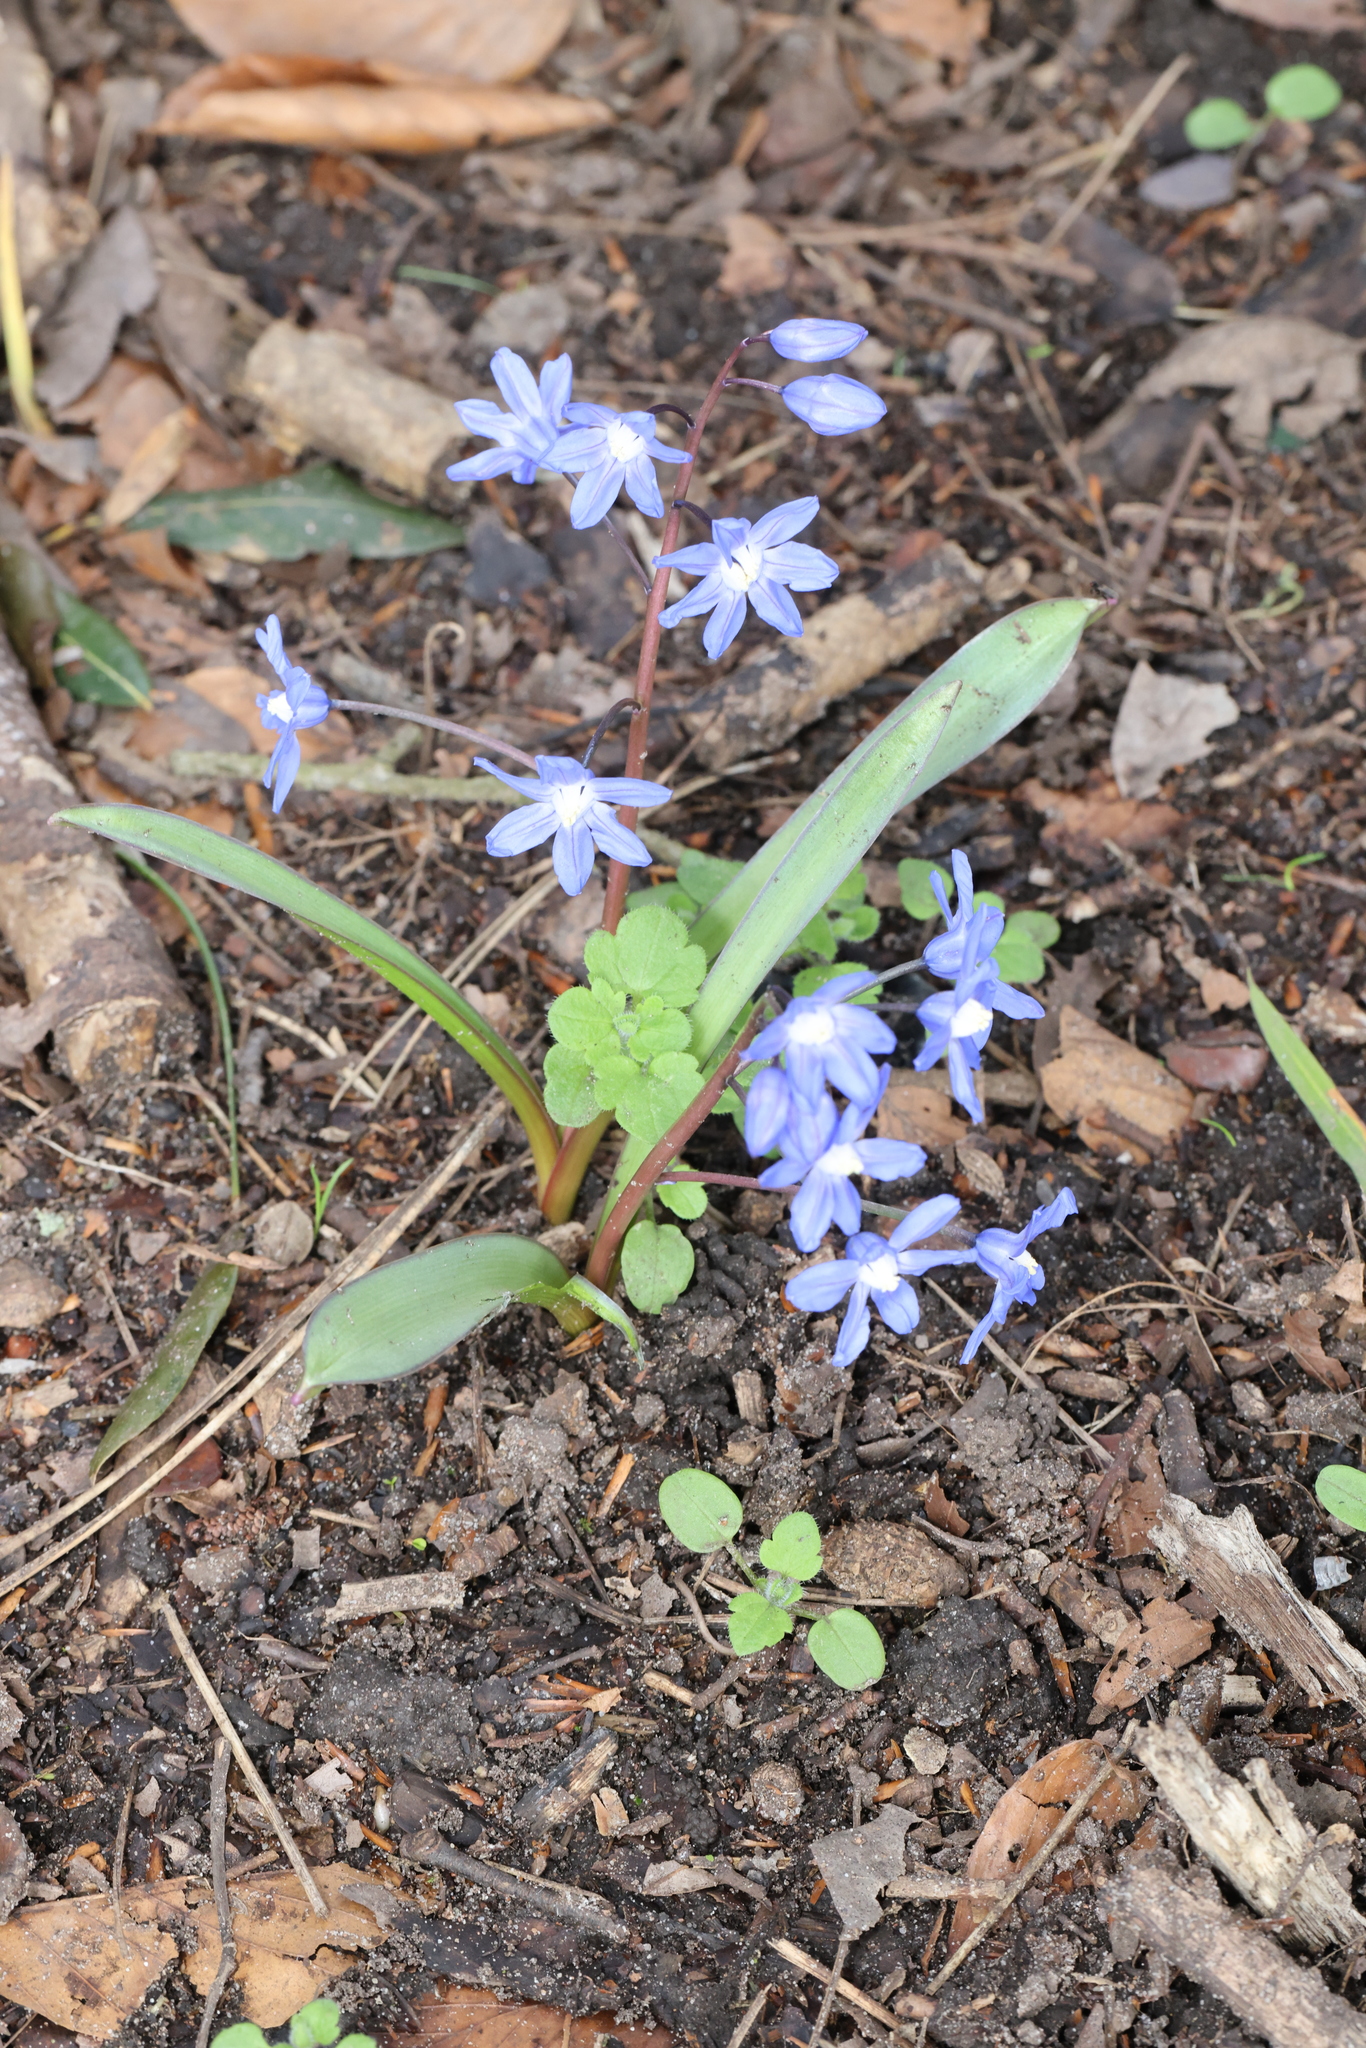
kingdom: Plantae
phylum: Tracheophyta
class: Liliopsida
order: Asparagales
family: Asparagaceae
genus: Scilla
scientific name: Scilla forbesii
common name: Glory-of-the-snow
